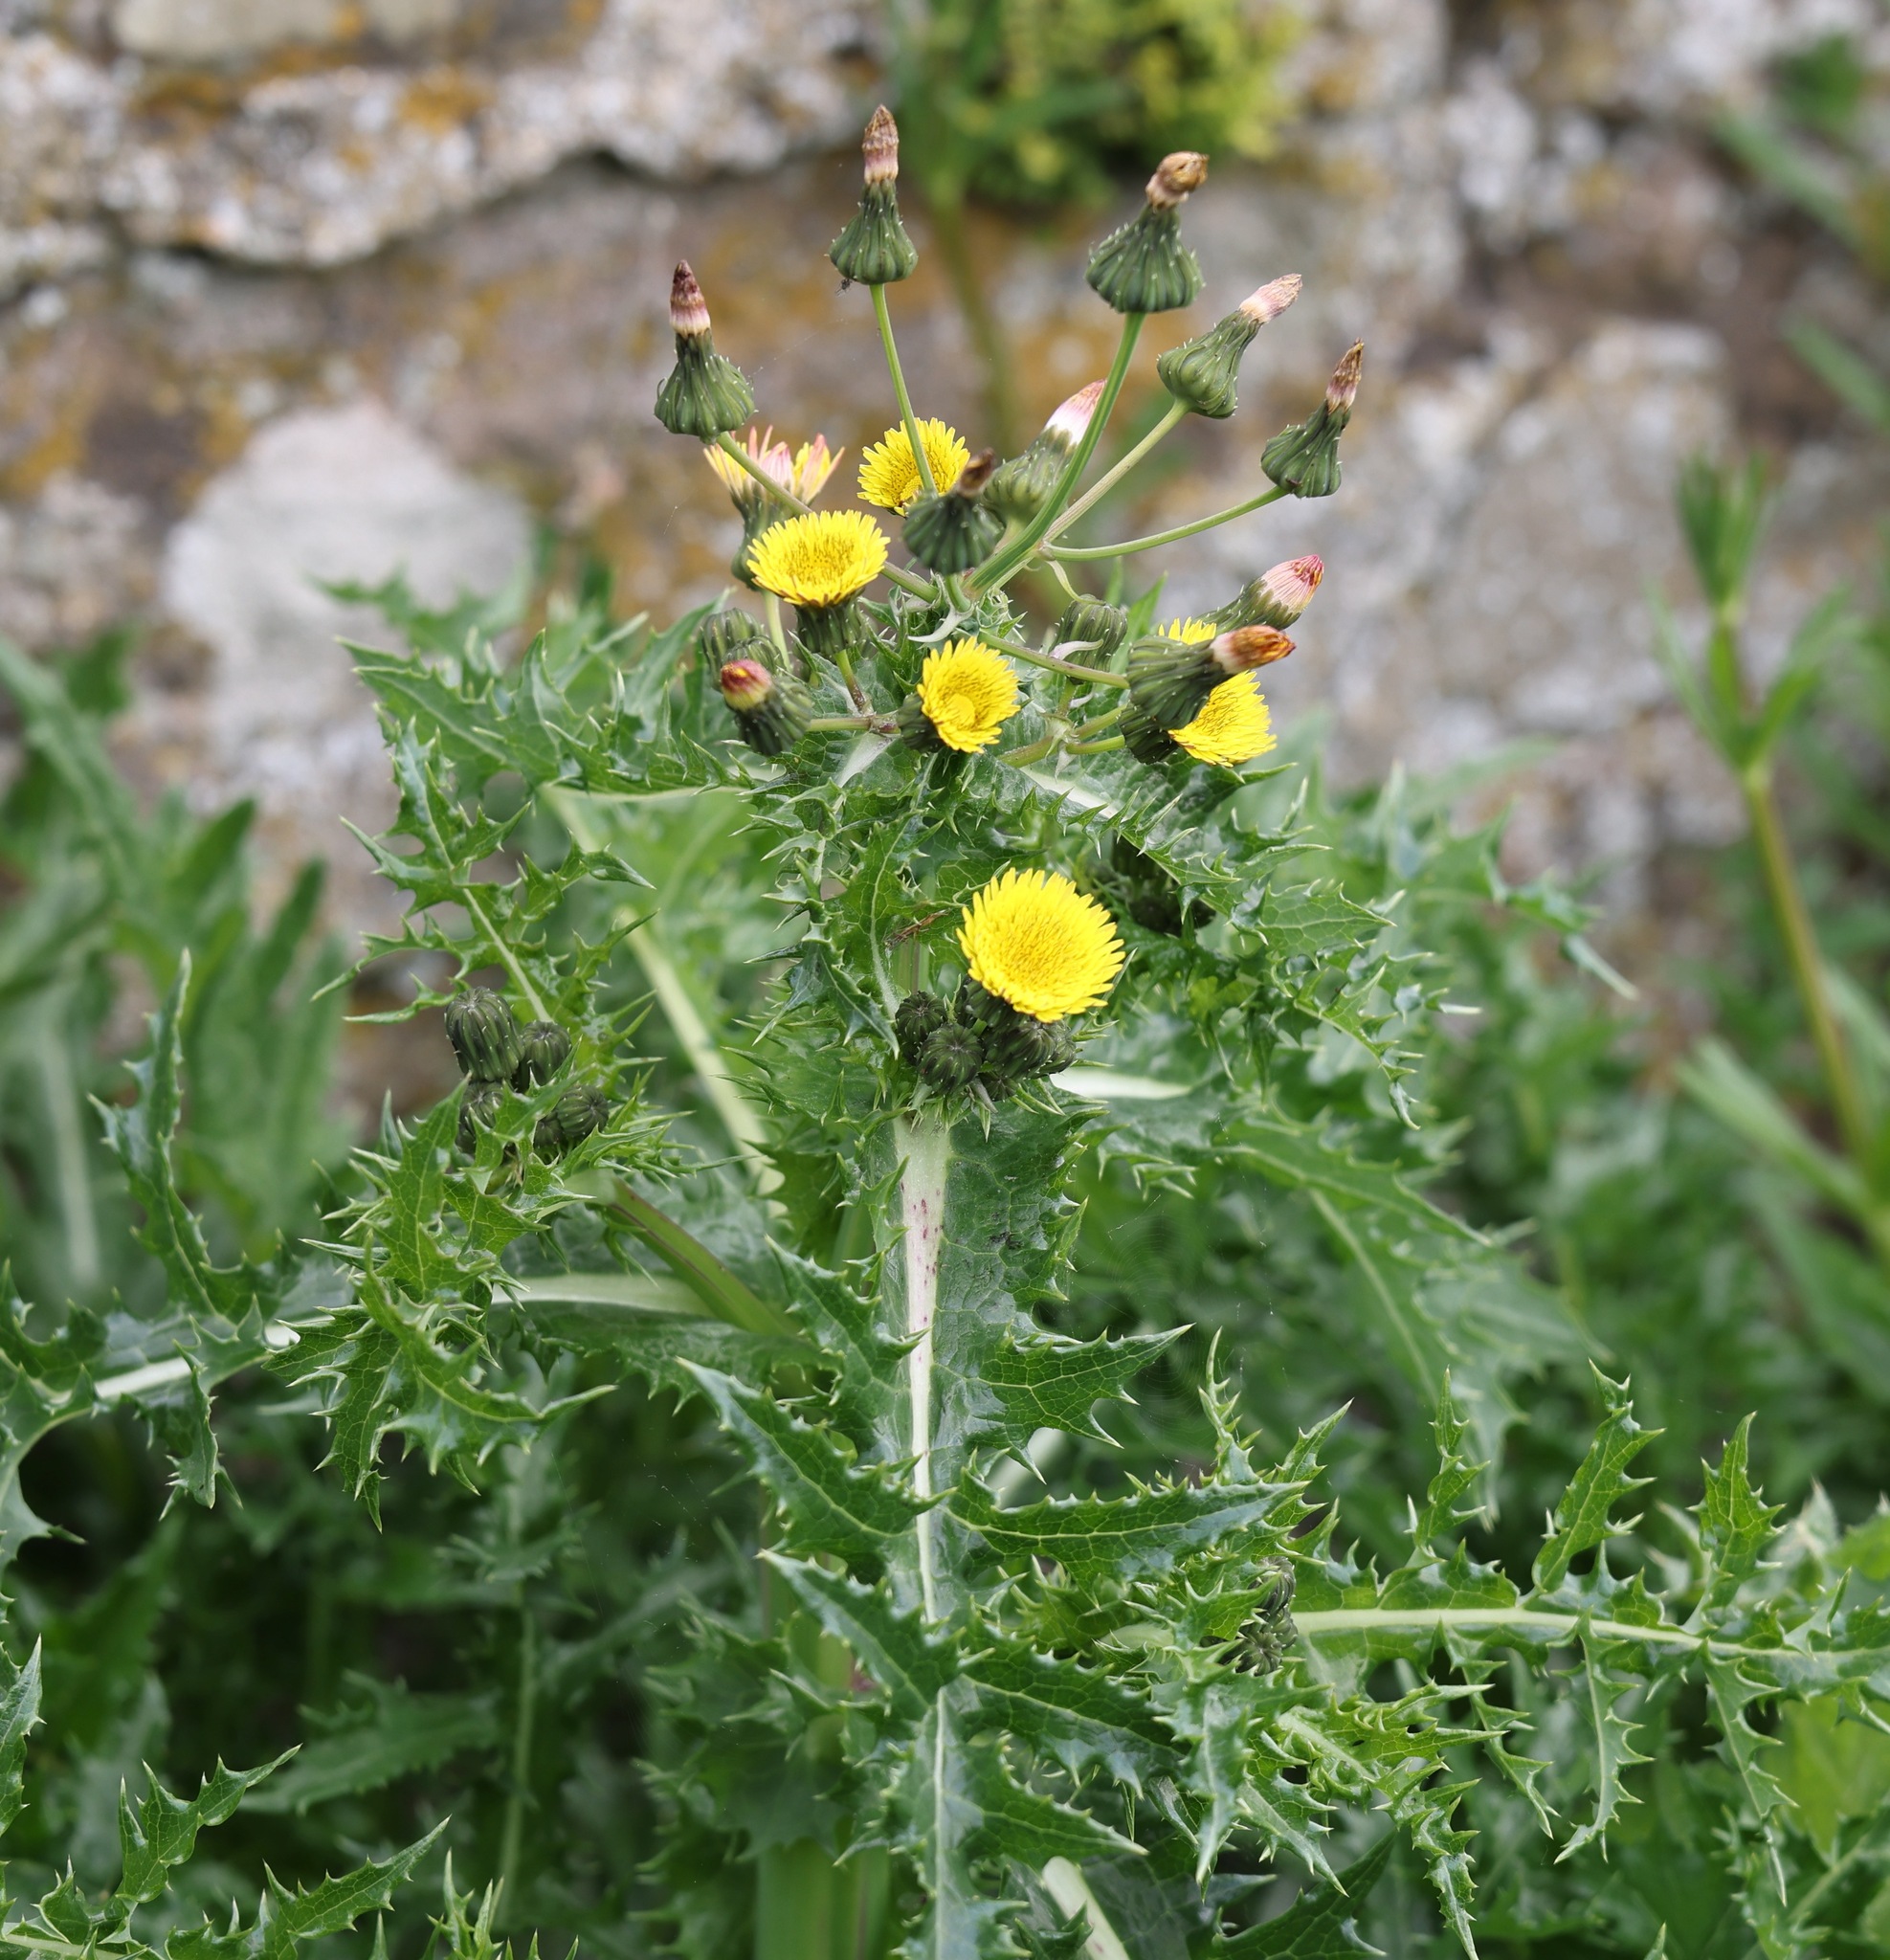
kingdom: Plantae
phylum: Tracheophyta
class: Magnoliopsida
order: Asterales
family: Asteraceae
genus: Sonchus
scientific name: Sonchus asper
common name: Prickly sow-thistle
